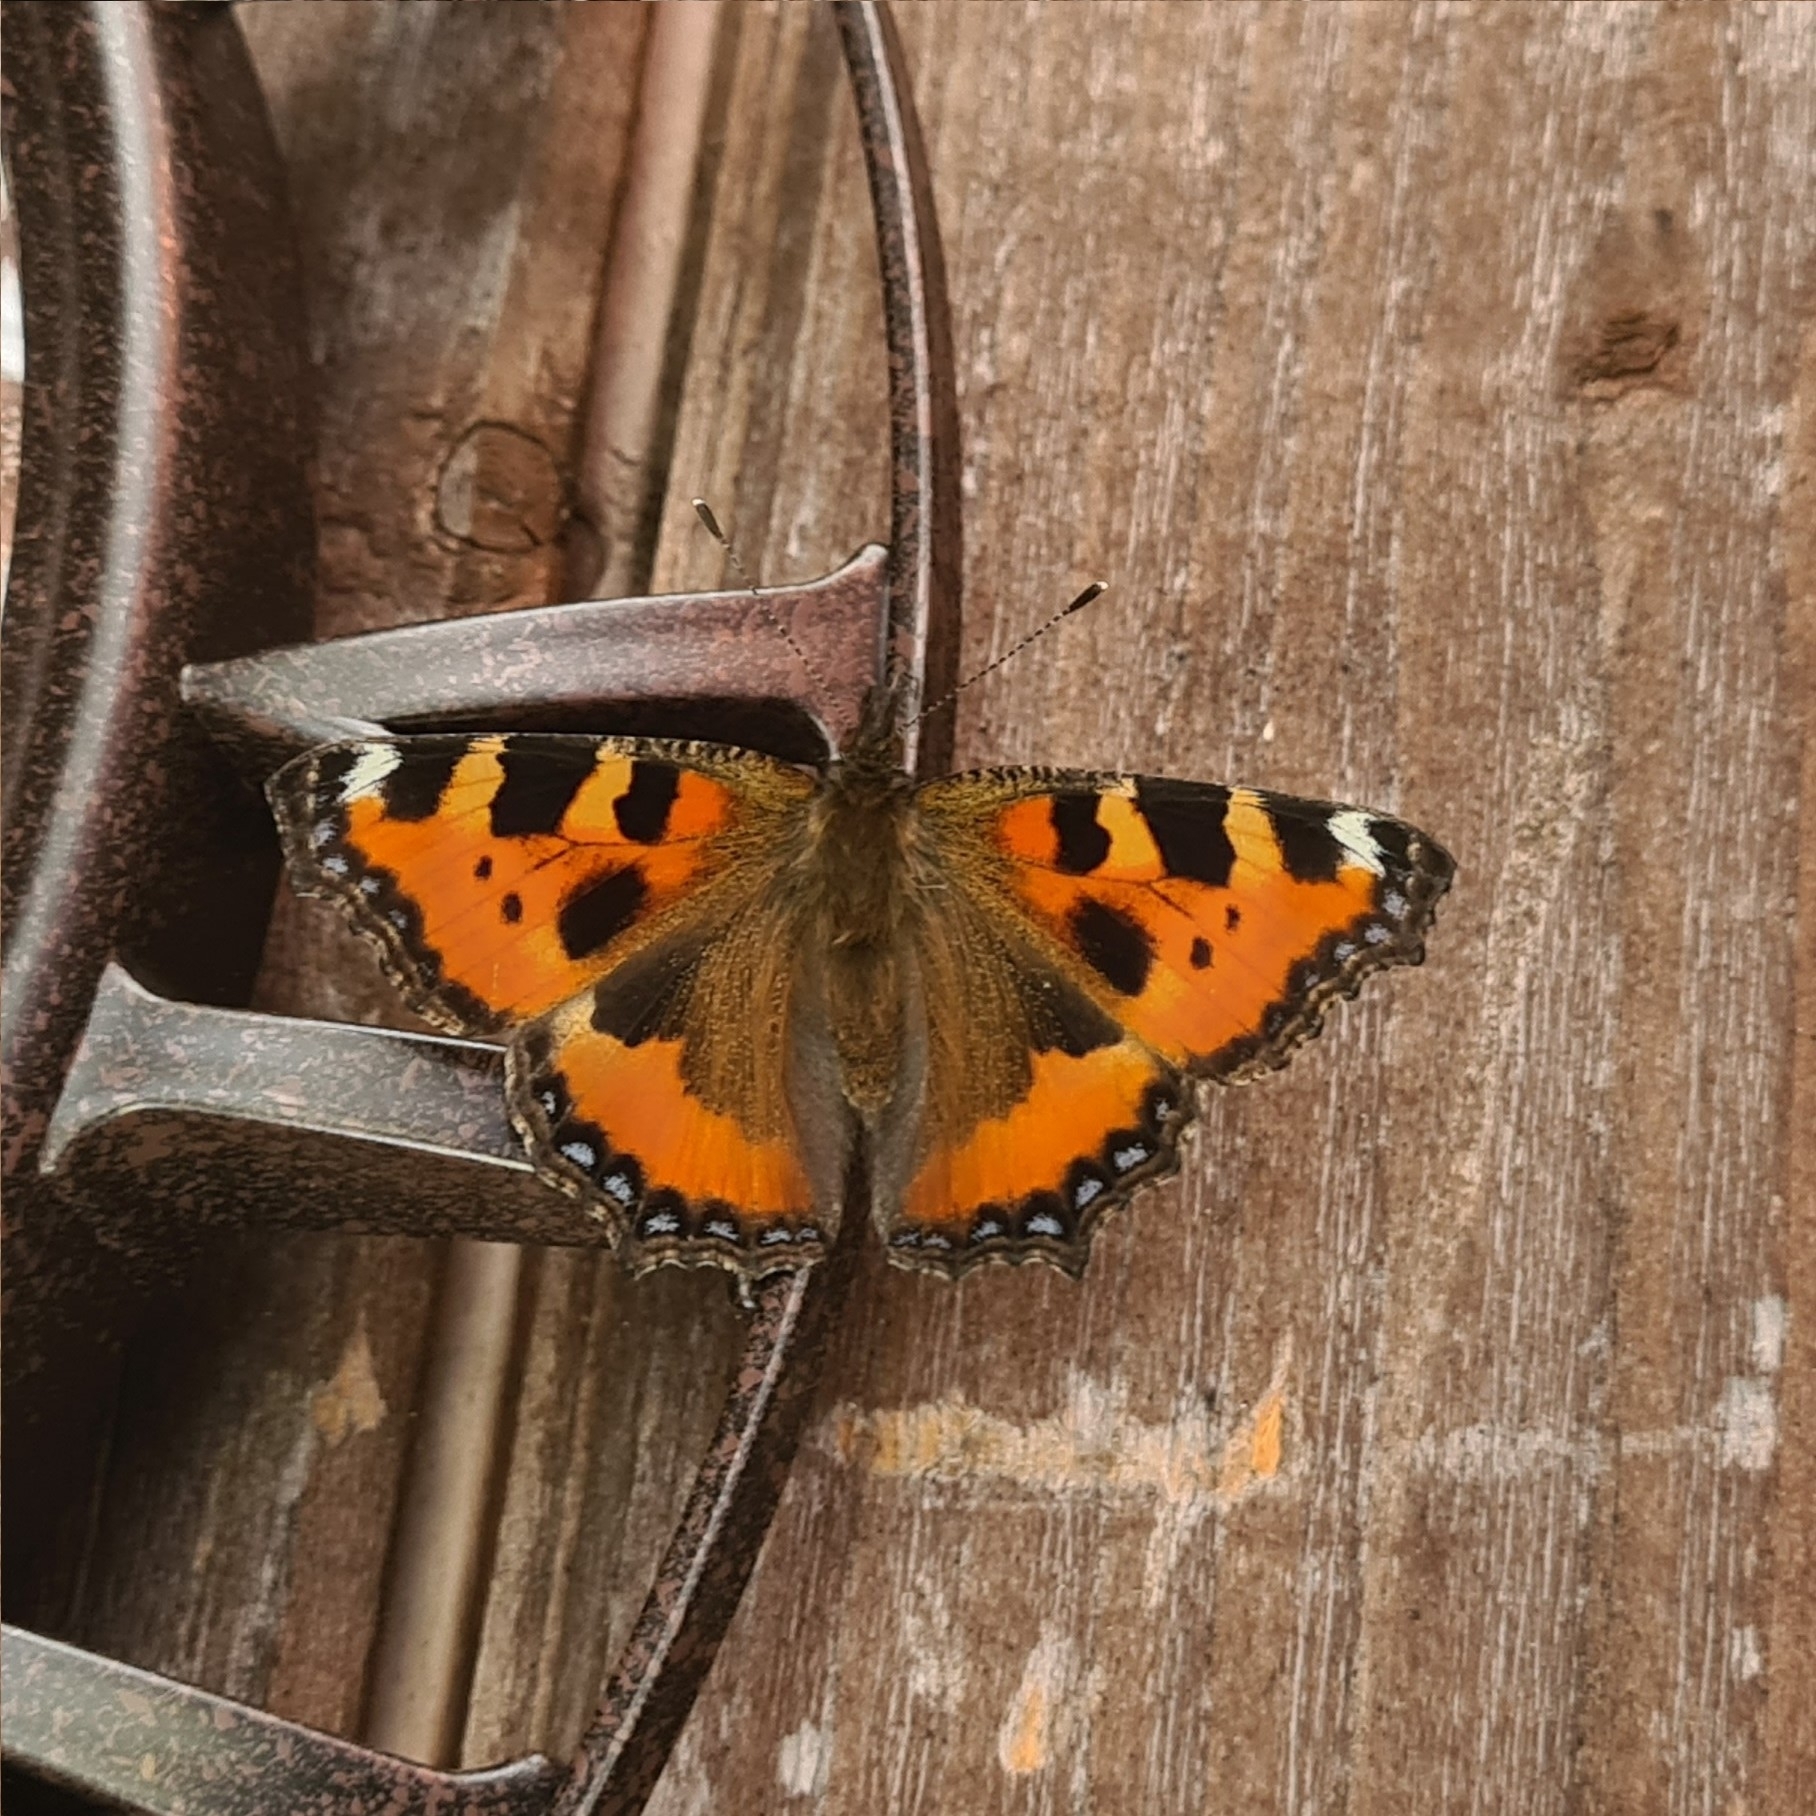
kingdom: Animalia
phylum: Arthropoda
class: Insecta
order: Lepidoptera
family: Nymphalidae
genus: Aglais
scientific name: Aglais urticae
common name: Small tortoiseshell
